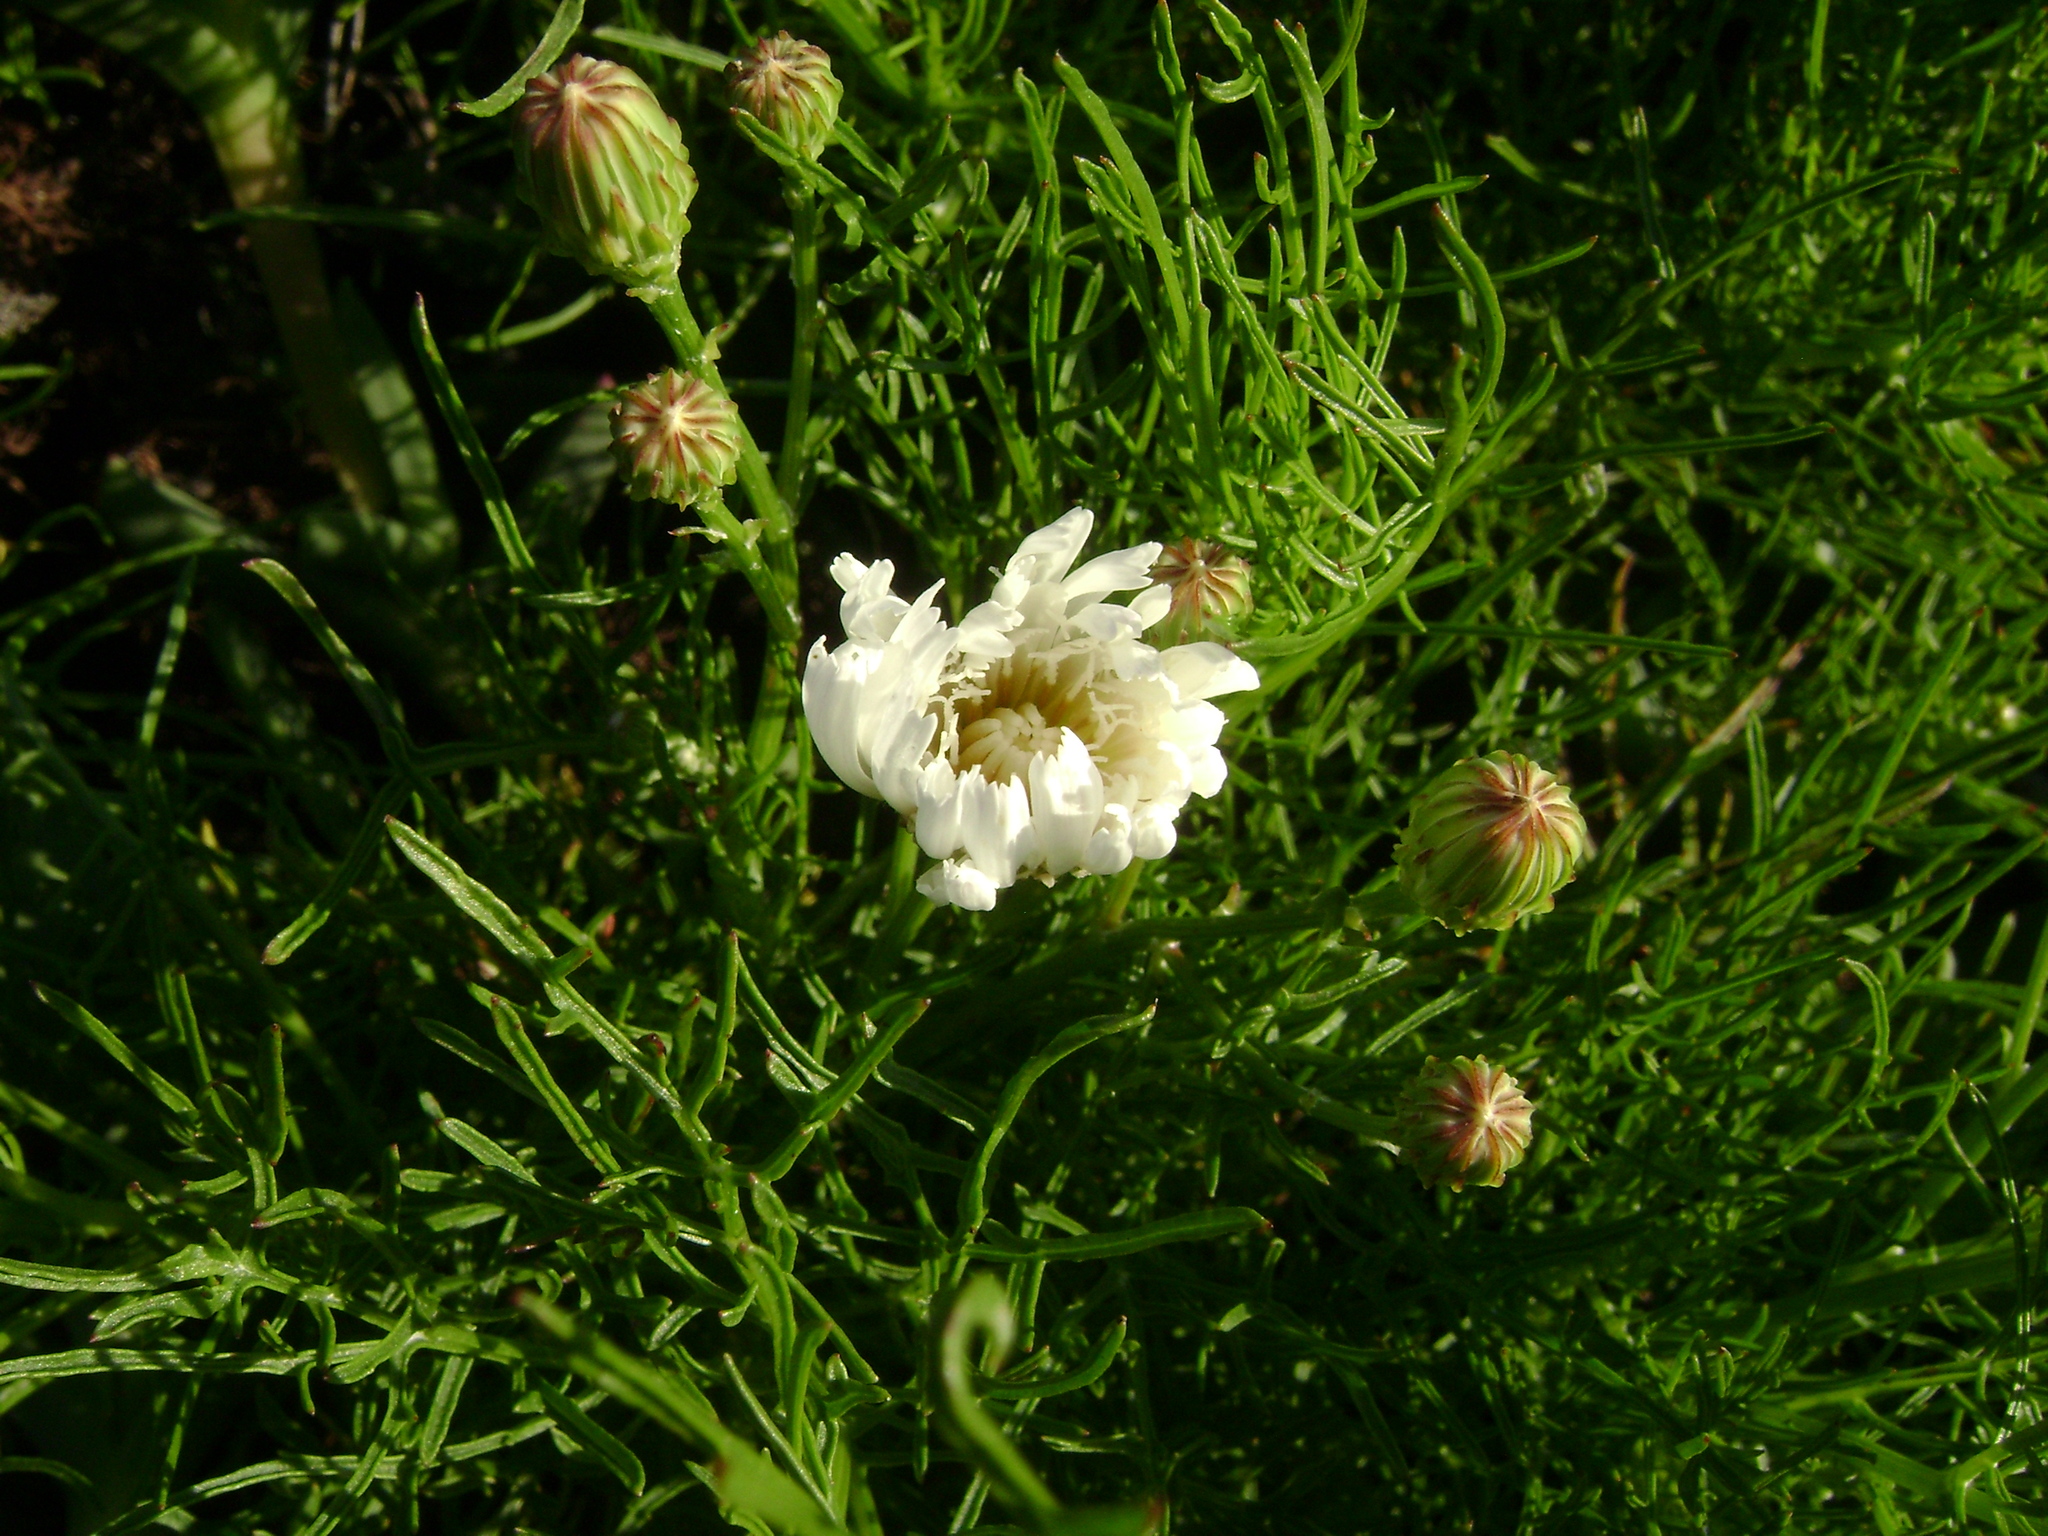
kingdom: Plantae
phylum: Tracheophyta
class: Magnoliopsida
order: Asterales
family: Asteraceae
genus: Malacothrix
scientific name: Malacothrix saxatilis
